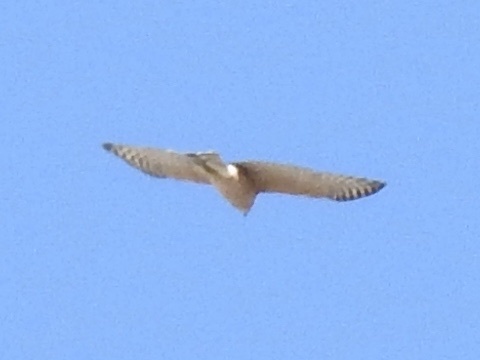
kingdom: Animalia
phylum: Chordata
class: Aves
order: Accipitriformes
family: Accipitridae
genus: Accipiter
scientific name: Accipiter
